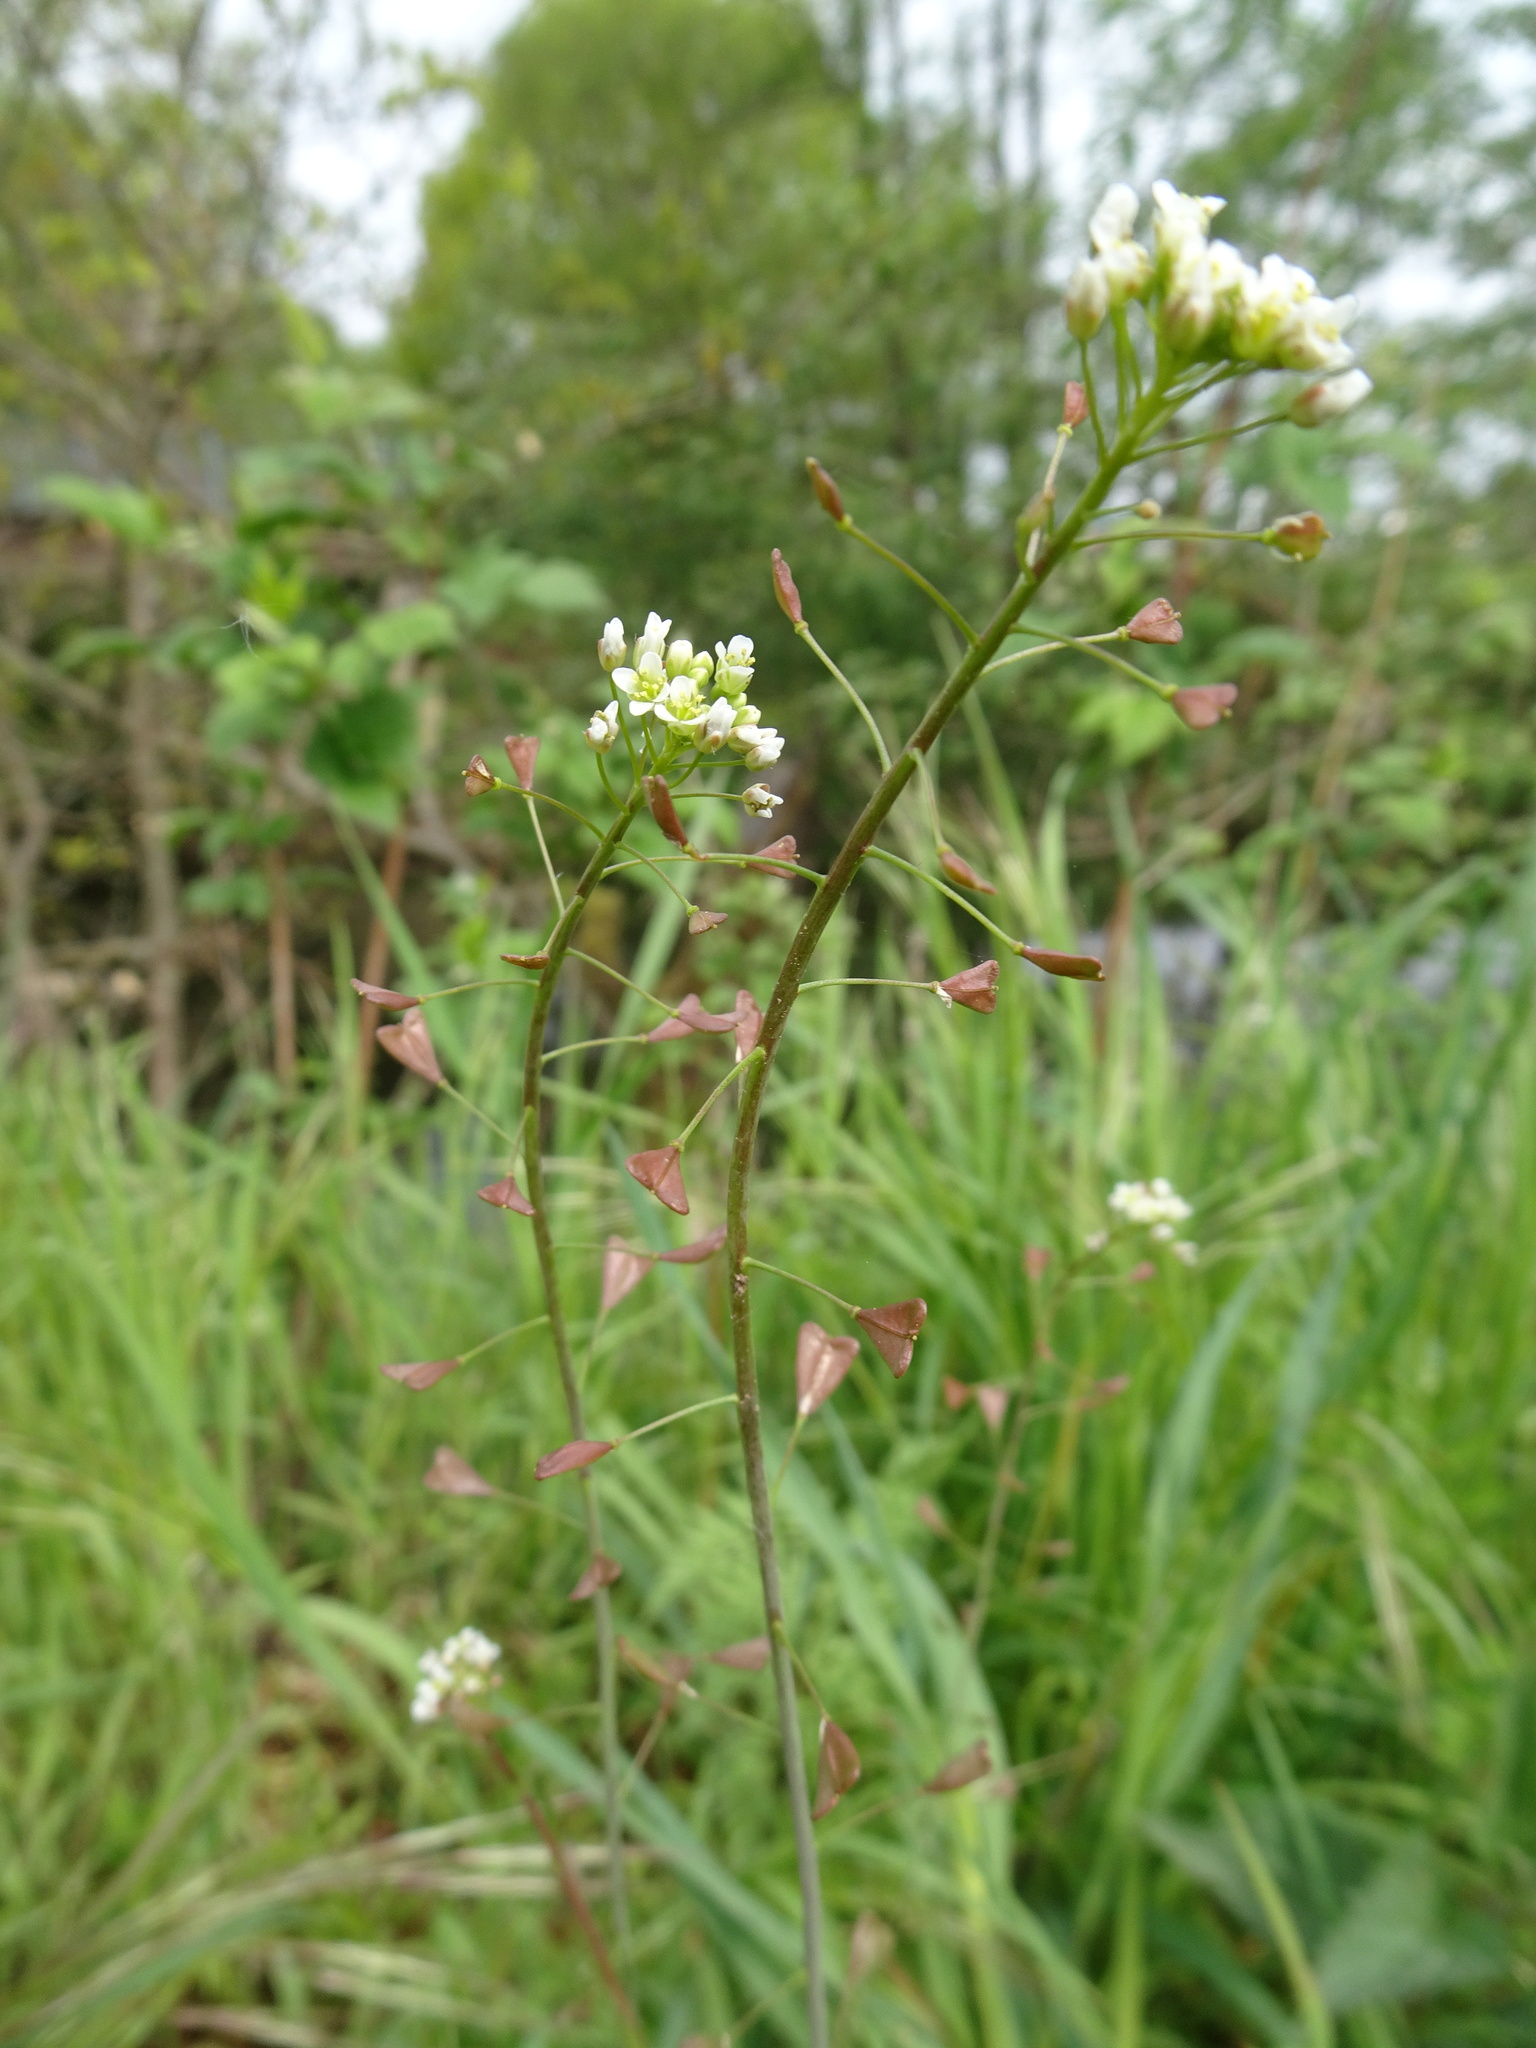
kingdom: Plantae
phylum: Tracheophyta
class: Magnoliopsida
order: Brassicales
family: Brassicaceae
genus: Capsella
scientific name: Capsella bursa-pastoris
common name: Shepherd's purse
